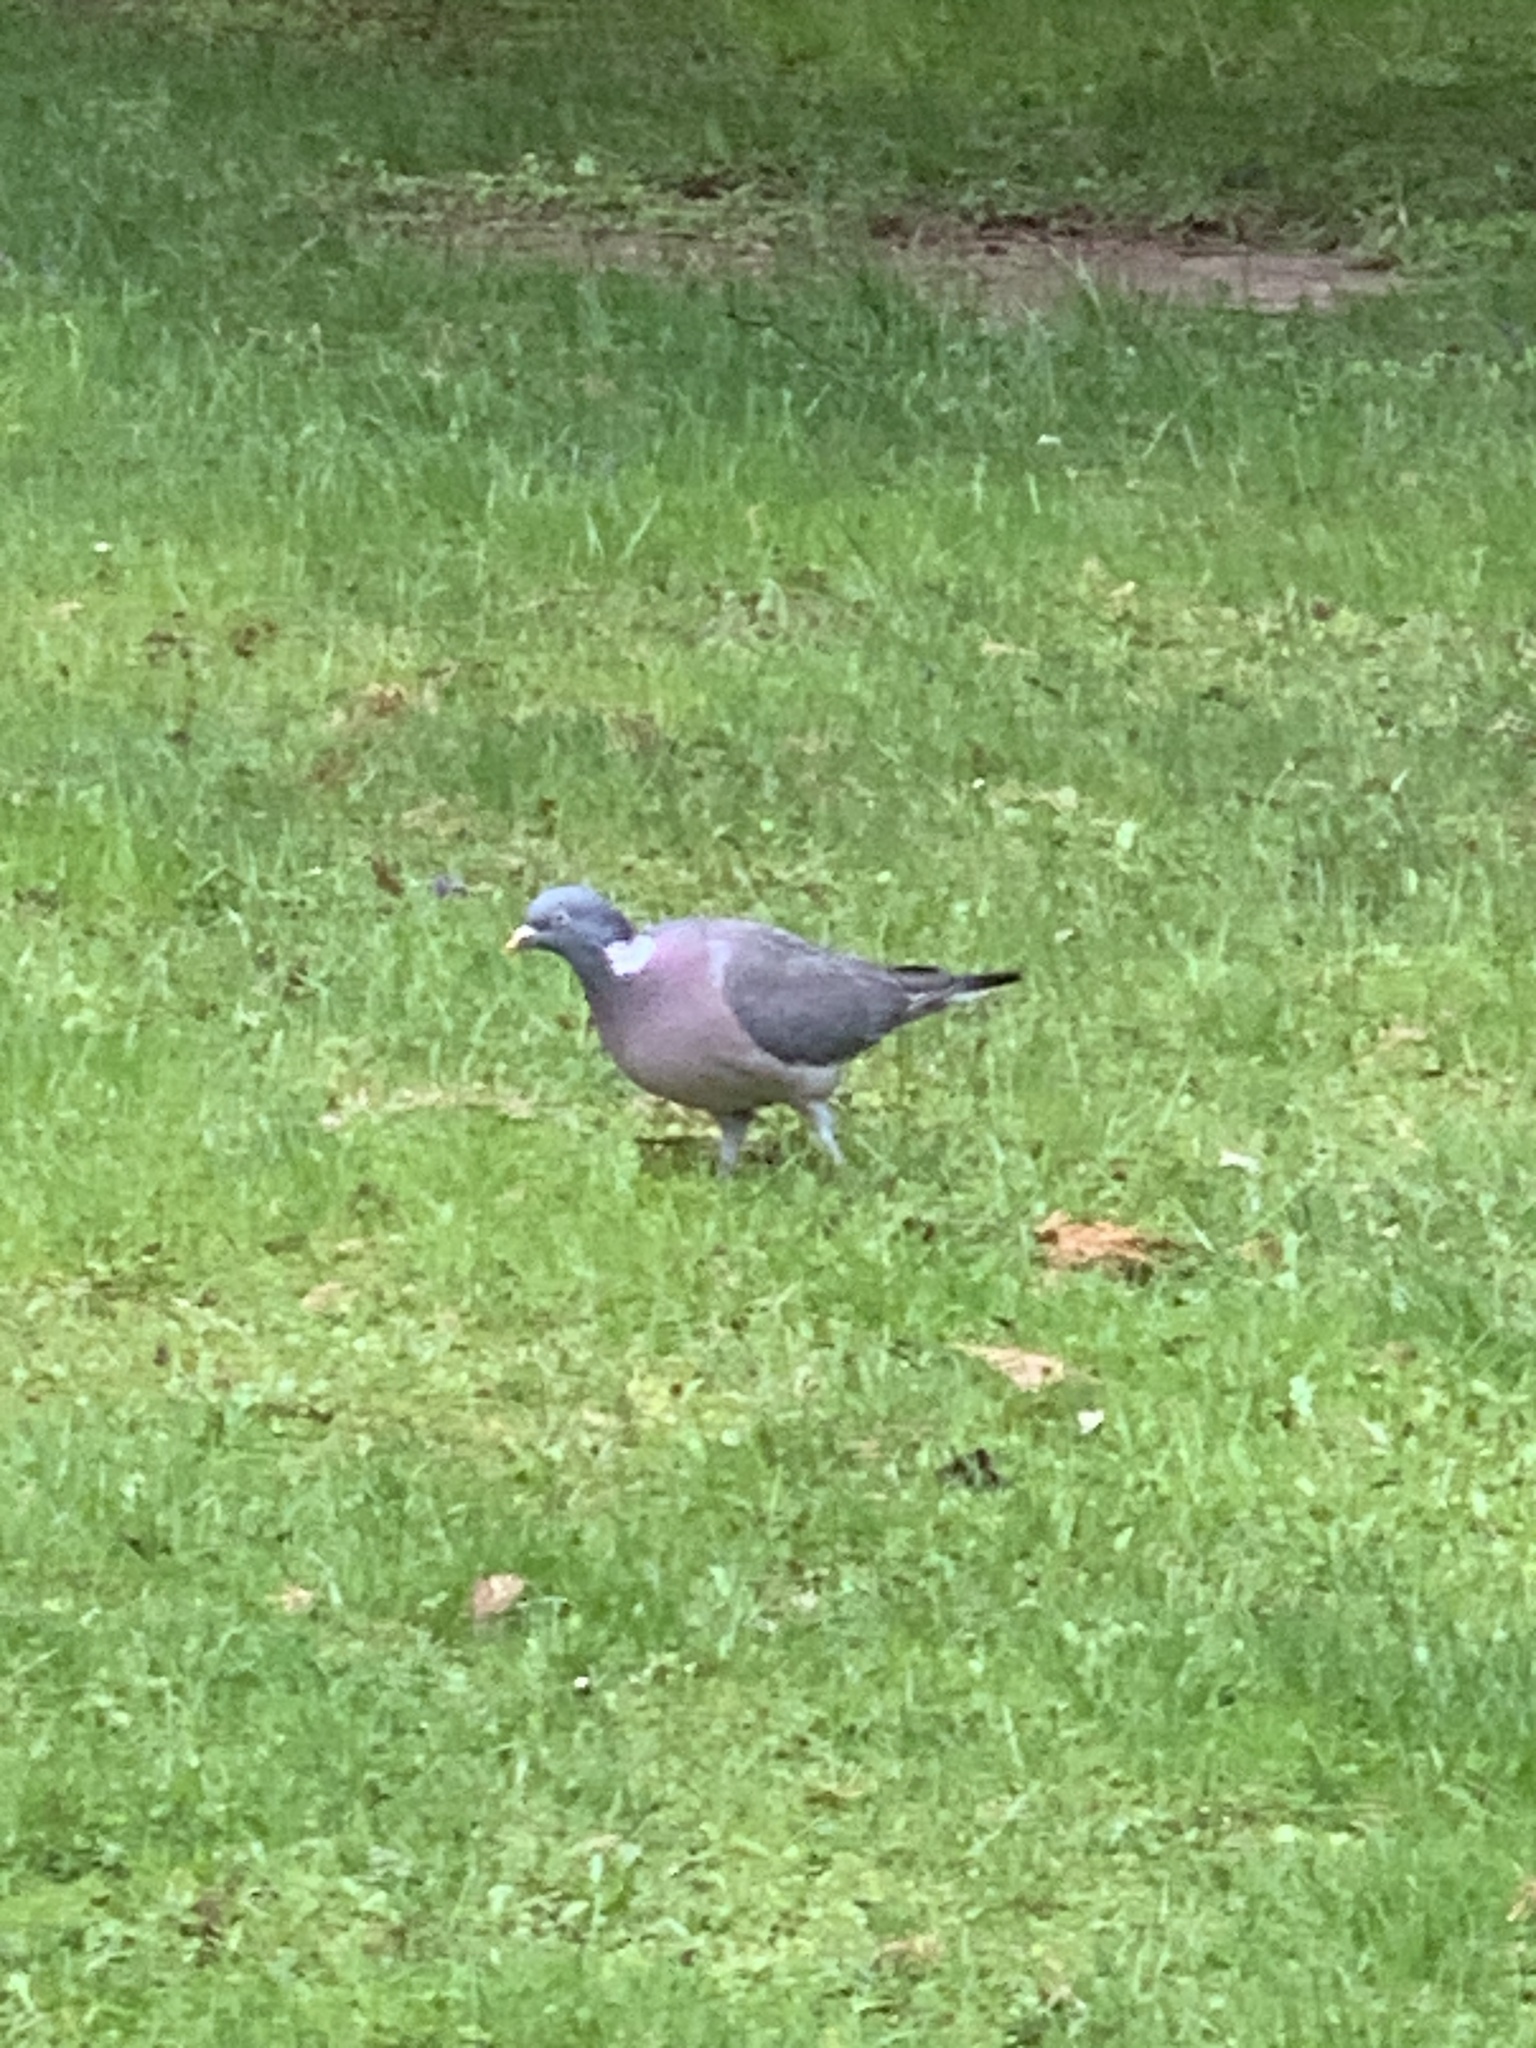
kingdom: Animalia
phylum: Chordata
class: Aves
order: Columbiformes
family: Columbidae
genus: Columba
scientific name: Columba palumbus
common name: Common wood pigeon
